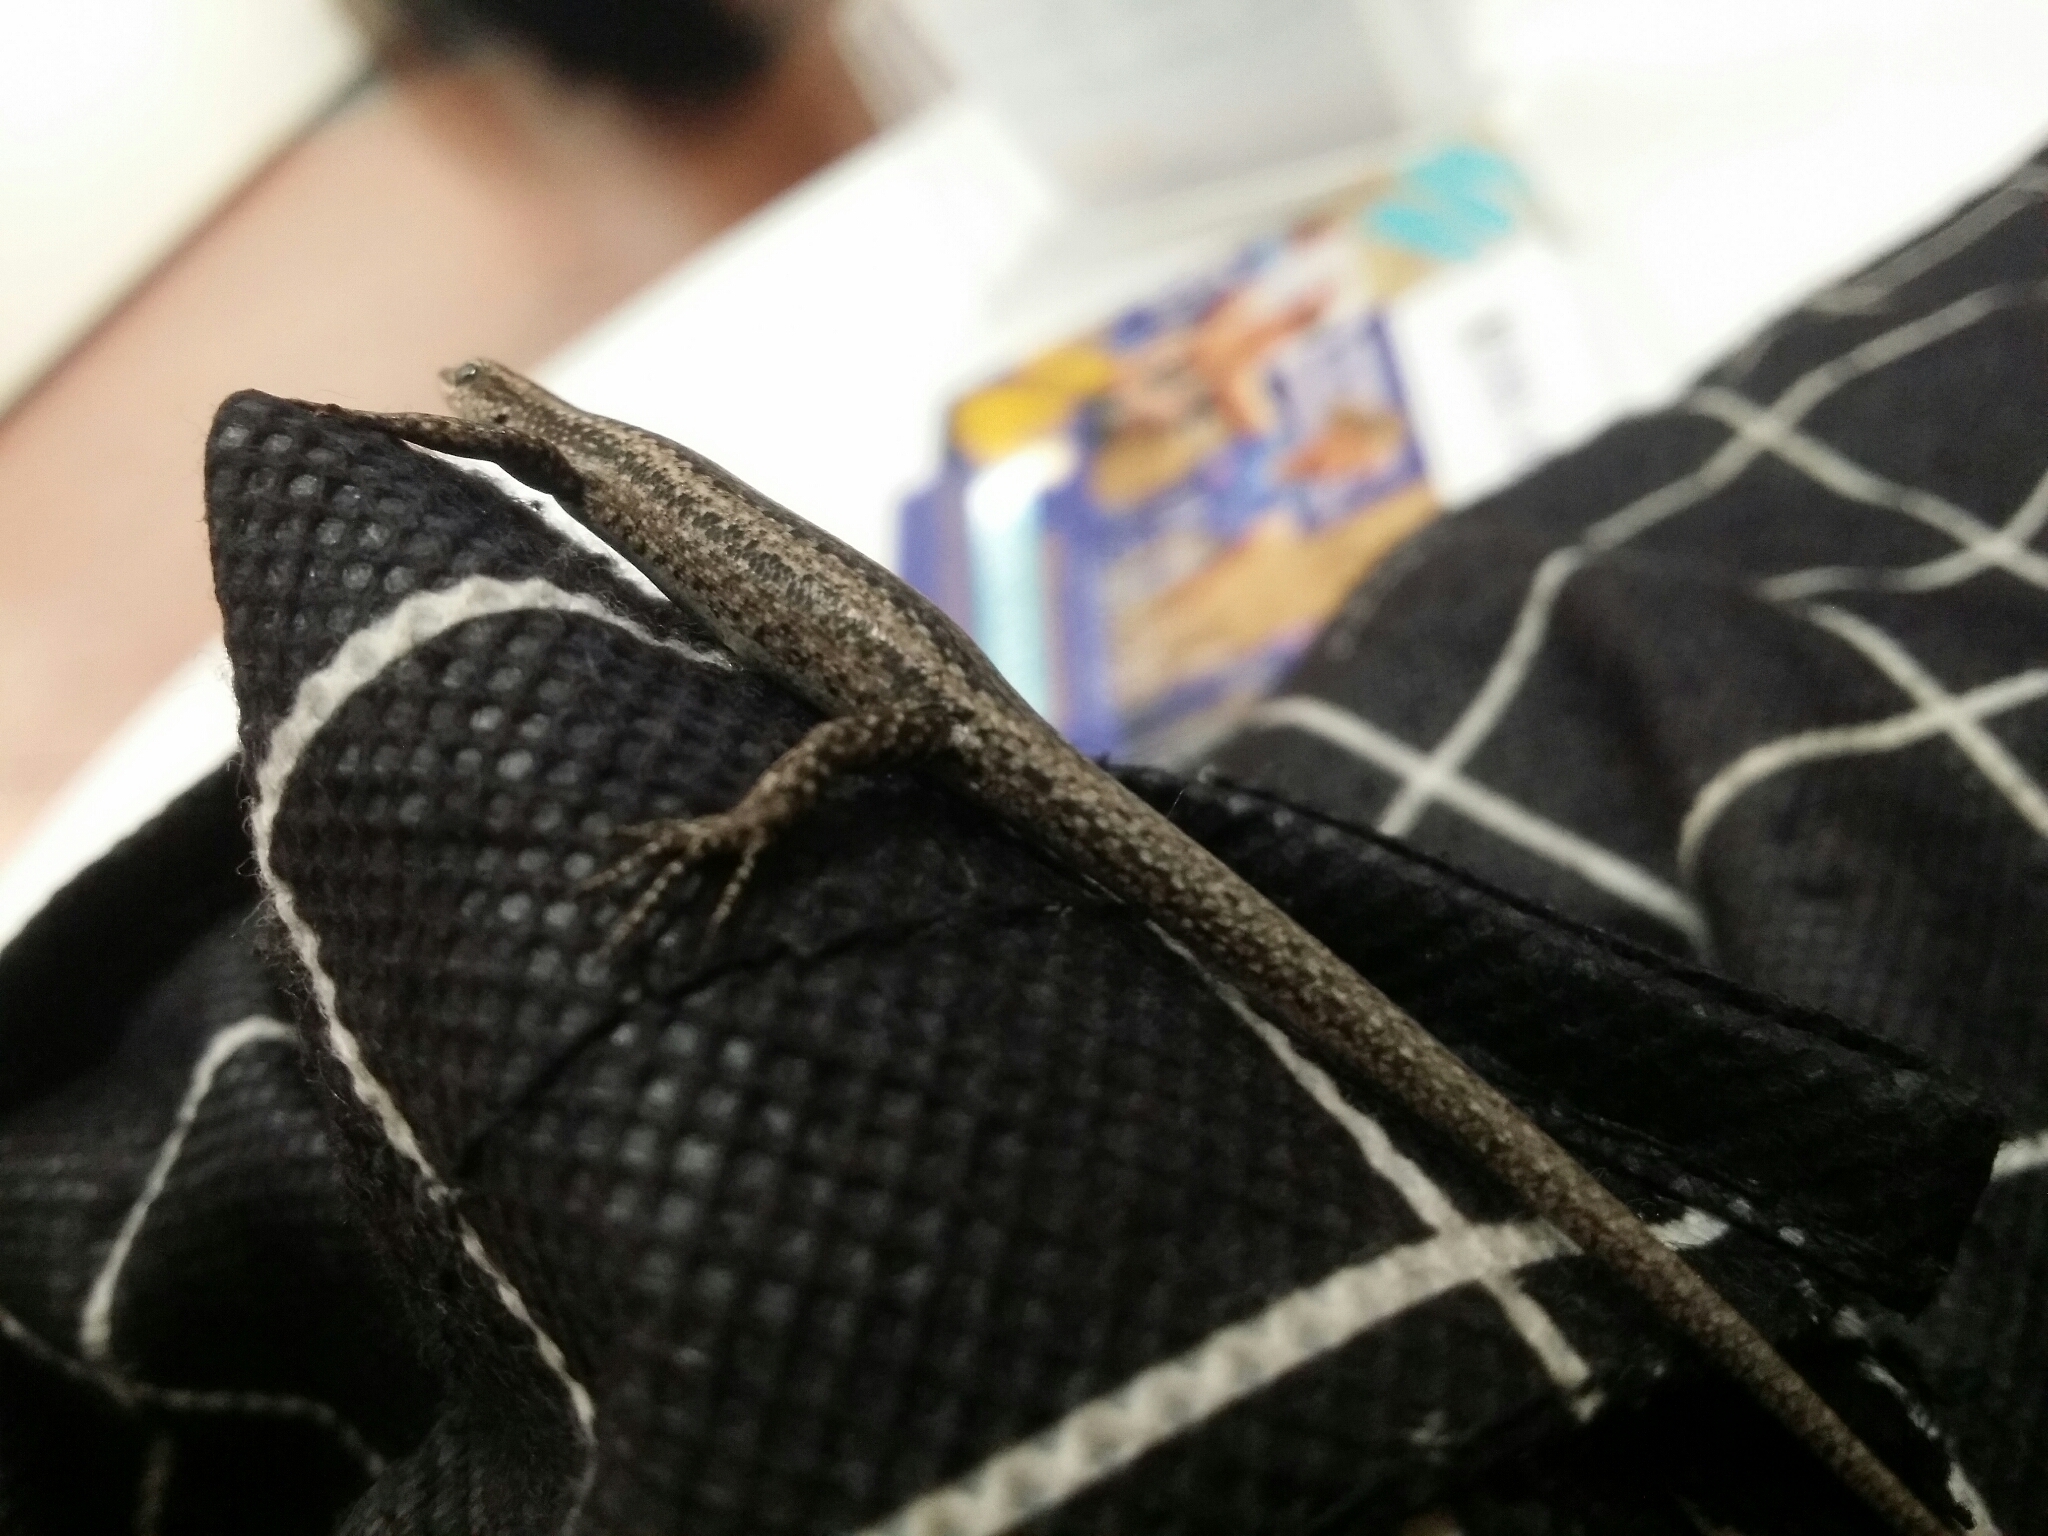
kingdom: Animalia
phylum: Chordata
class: Squamata
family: Scincidae
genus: Cryptoblepharus
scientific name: Cryptoblepharus buchananii
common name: Buchanan's snake-eyed skink
